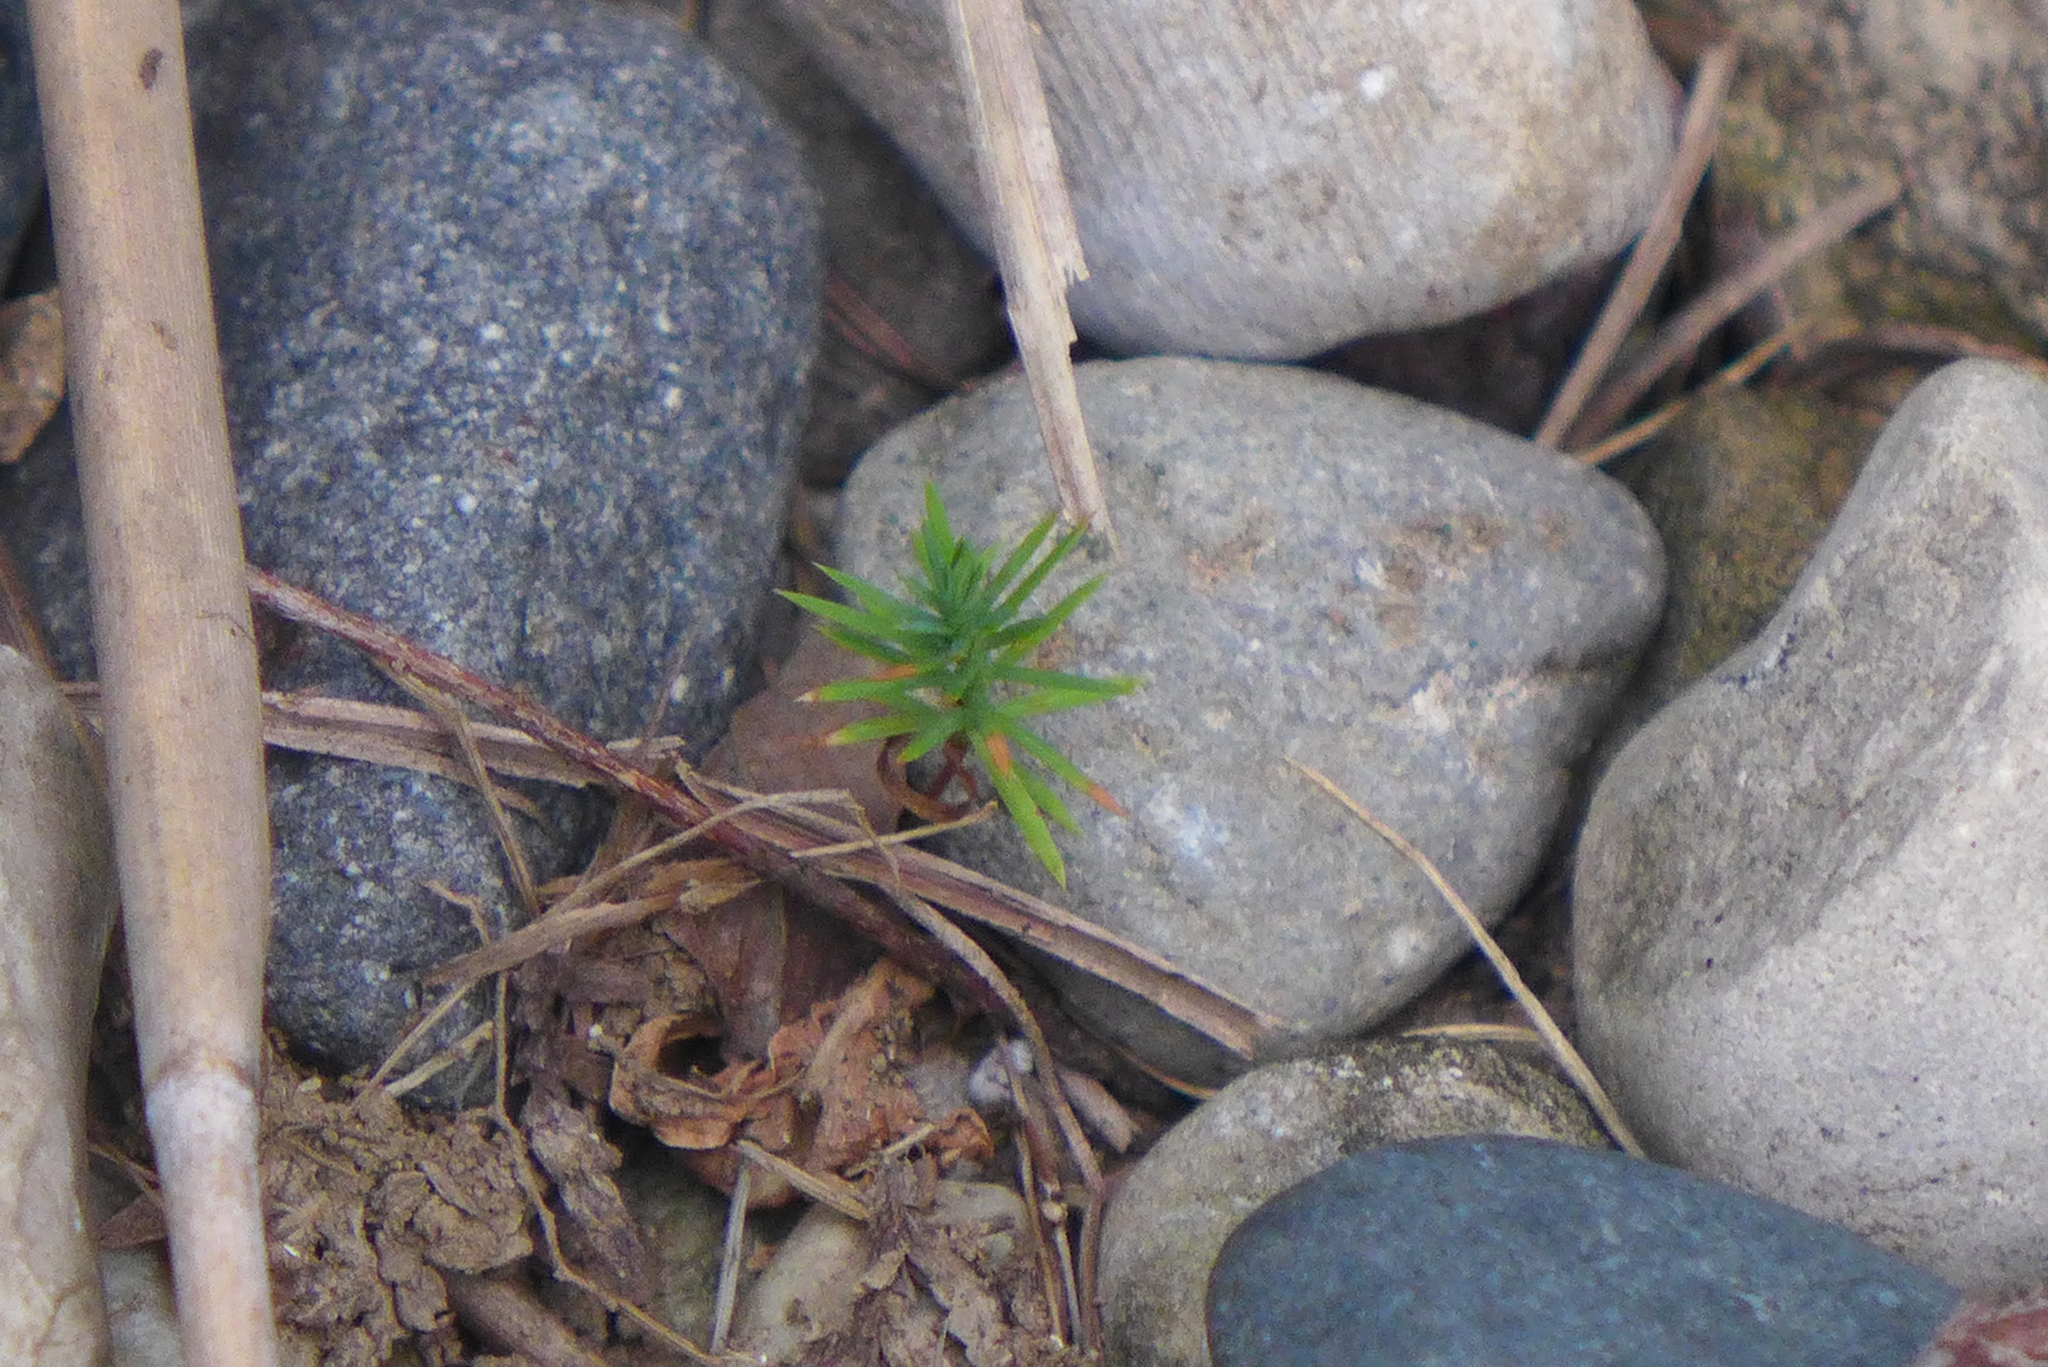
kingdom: Plantae
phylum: Tracheophyta
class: Pinopsida
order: Pinales
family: Pinaceae
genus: Tsuga
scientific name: Tsuga canadensis
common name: Eastern hemlock
